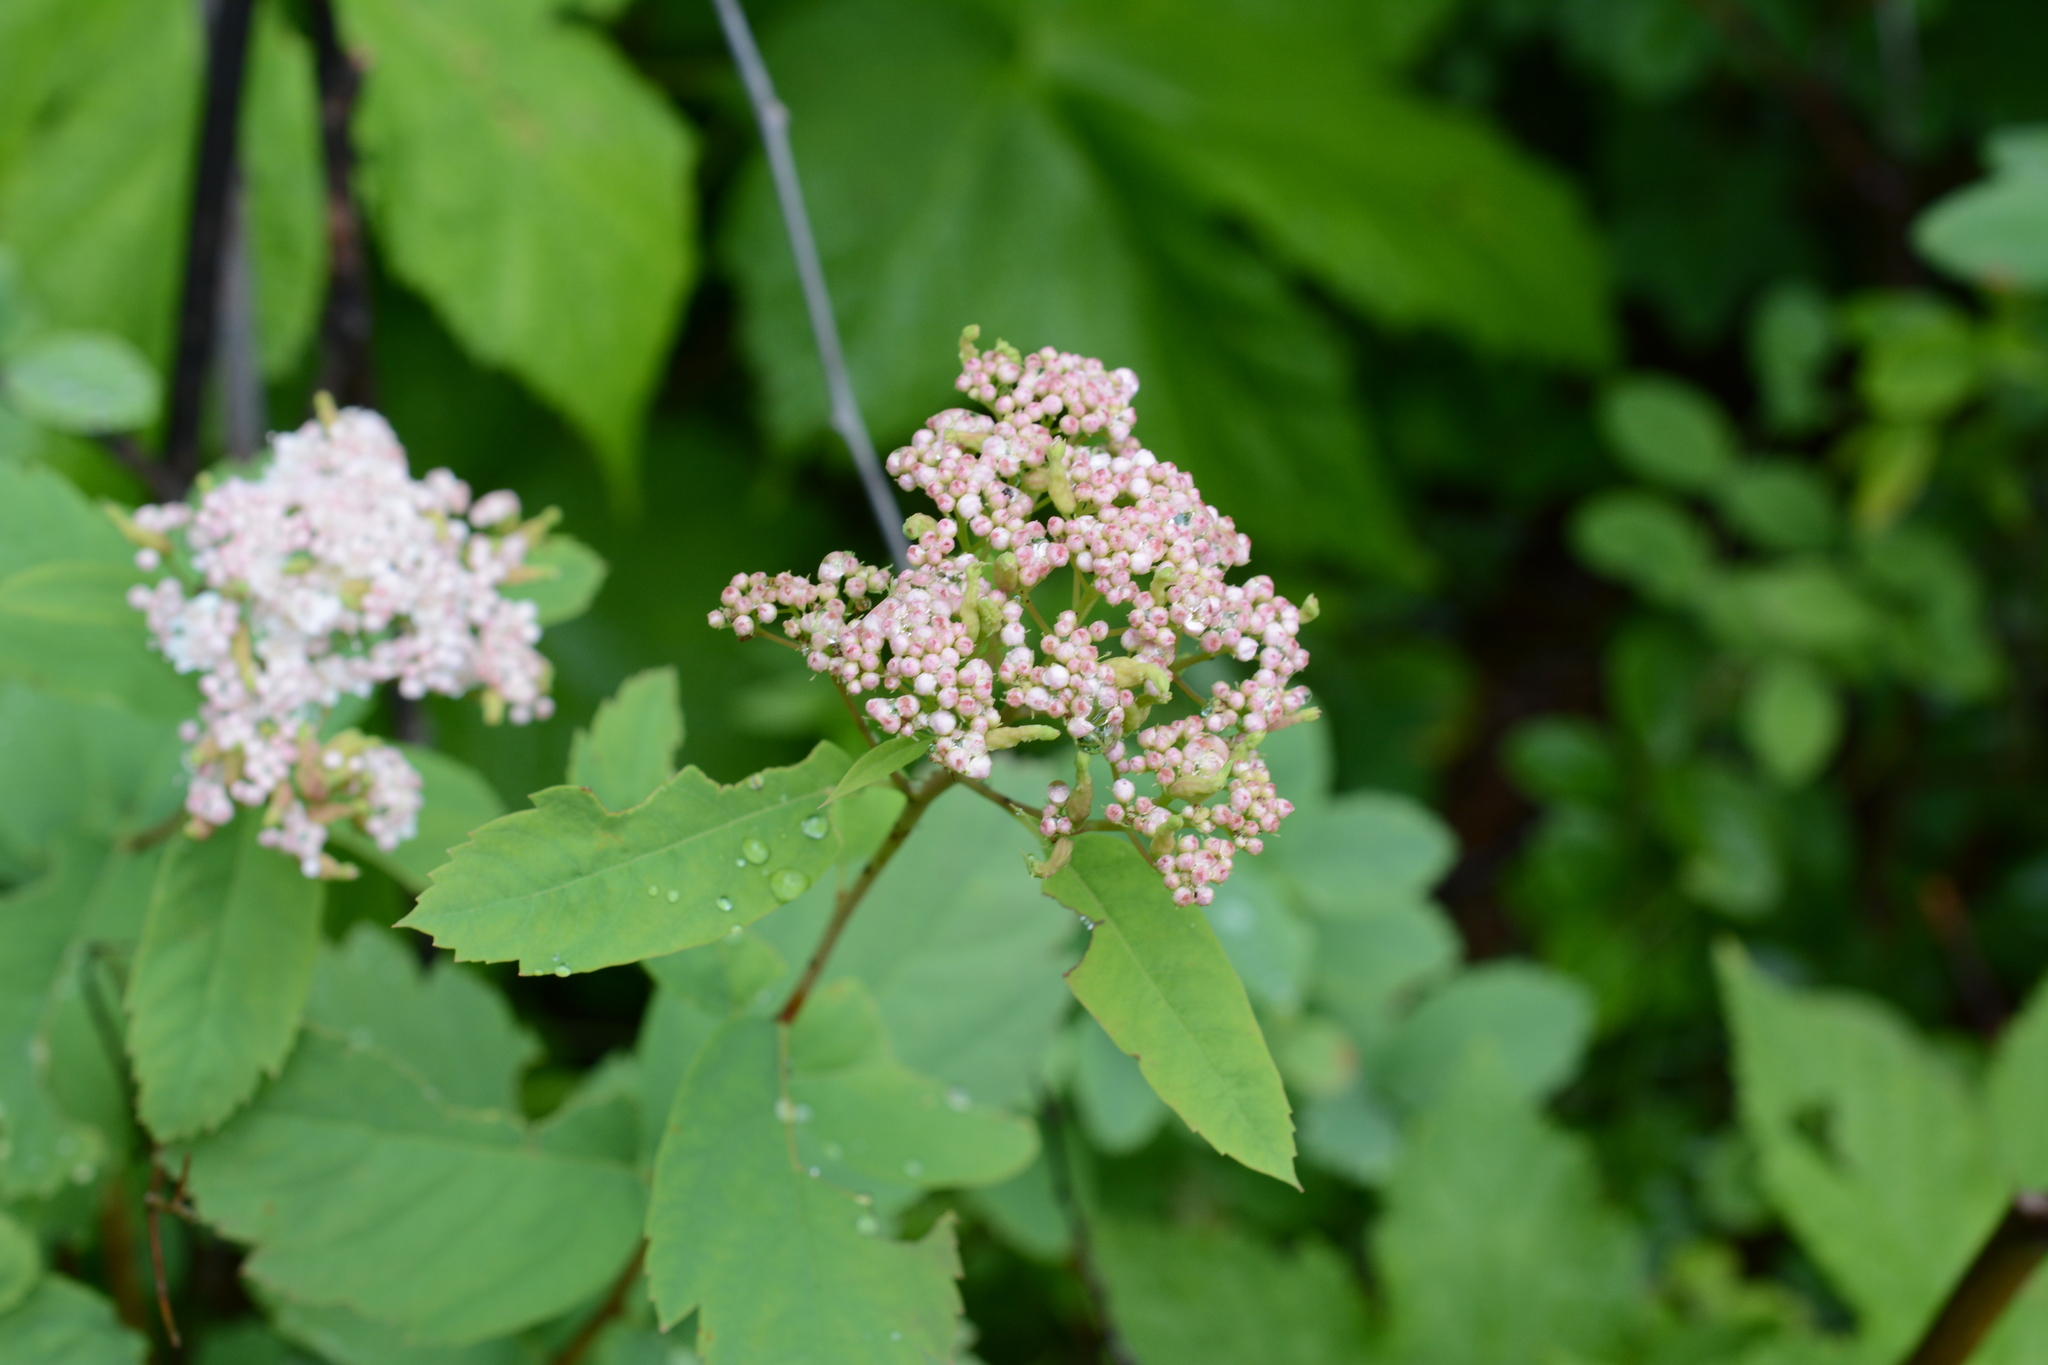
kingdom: Plantae
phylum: Tracheophyta
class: Magnoliopsida
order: Rosales
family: Rosaceae
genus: Spiraea
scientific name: Spiraea lucida
